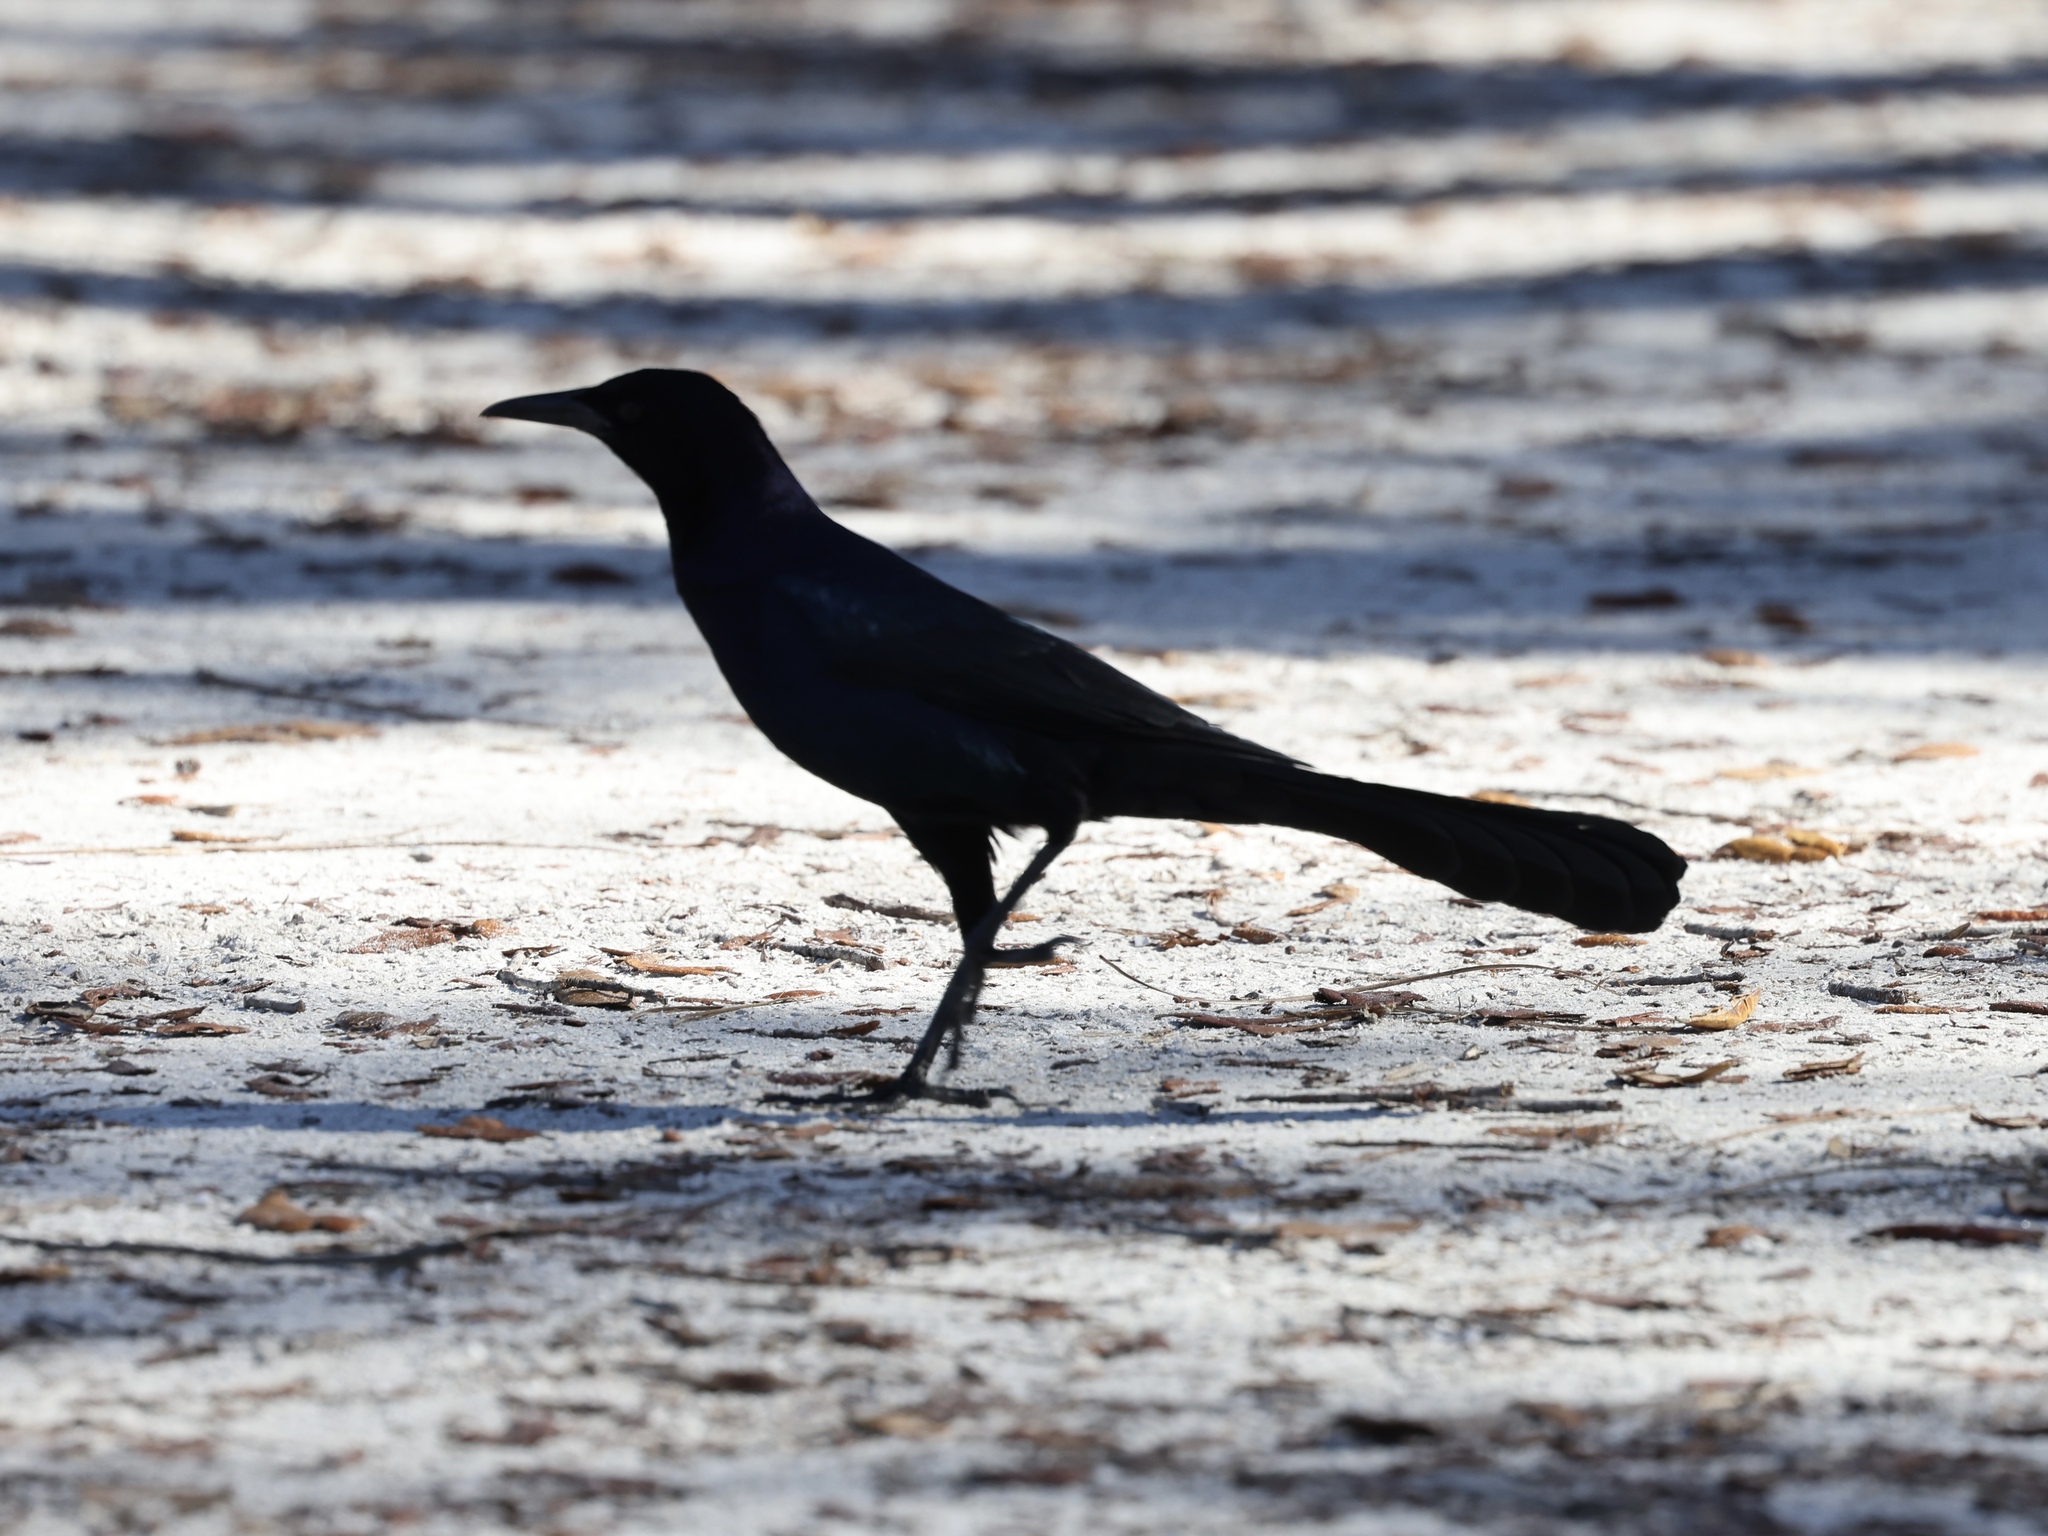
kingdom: Animalia
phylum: Chordata
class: Aves
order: Passeriformes
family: Icteridae
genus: Quiscalus
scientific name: Quiscalus major
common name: Boat-tailed grackle
